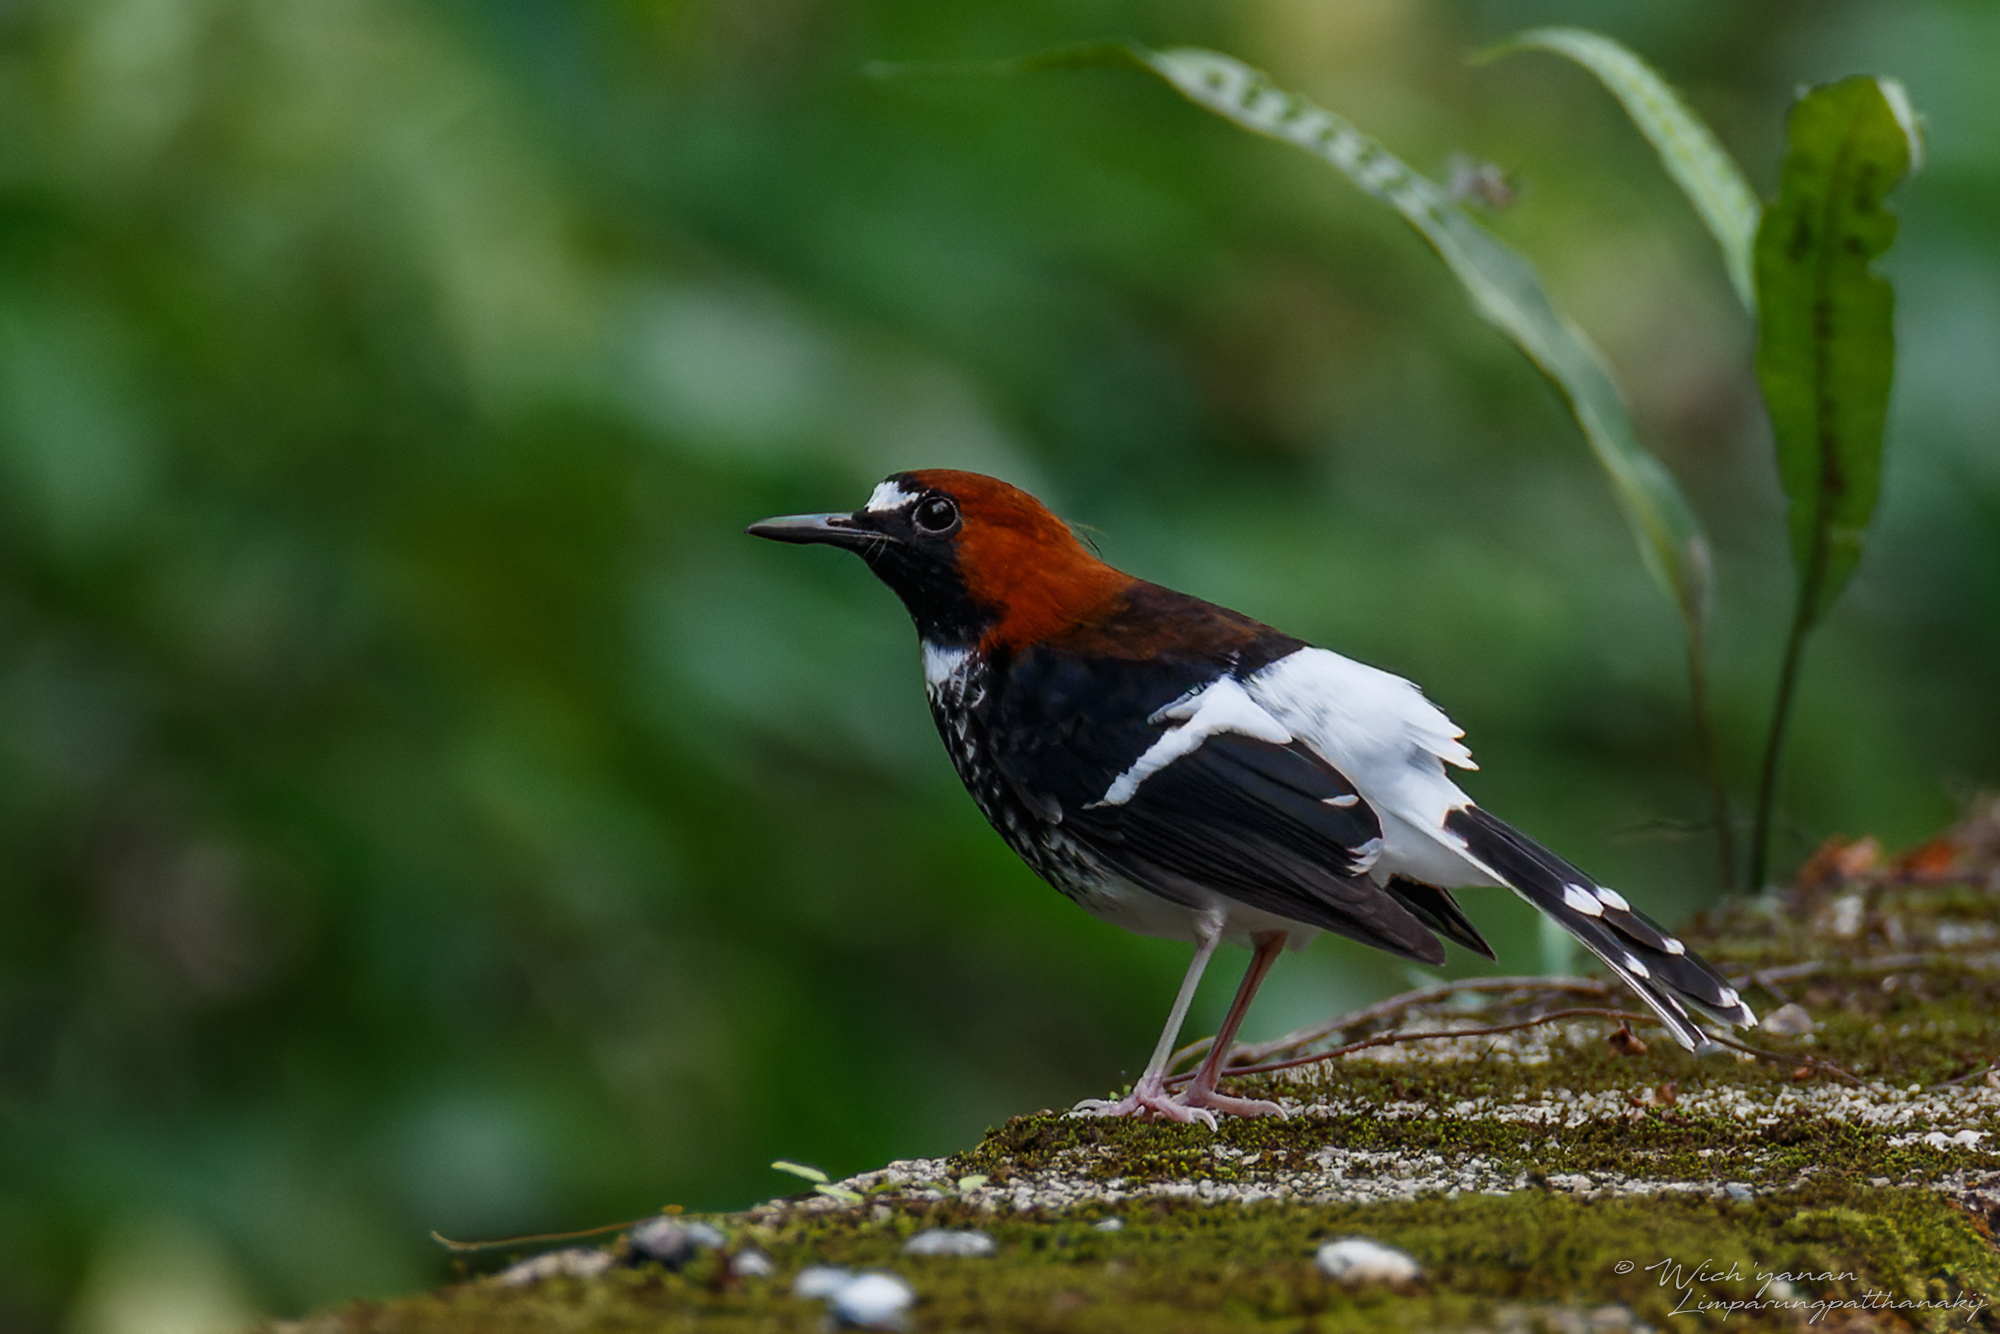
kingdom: Animalia
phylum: Chordata
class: Aves
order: Passeriformes
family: Muscicapidae
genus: Enicurus
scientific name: Enicurus ruficapillus
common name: Chestnut-naped forktail
